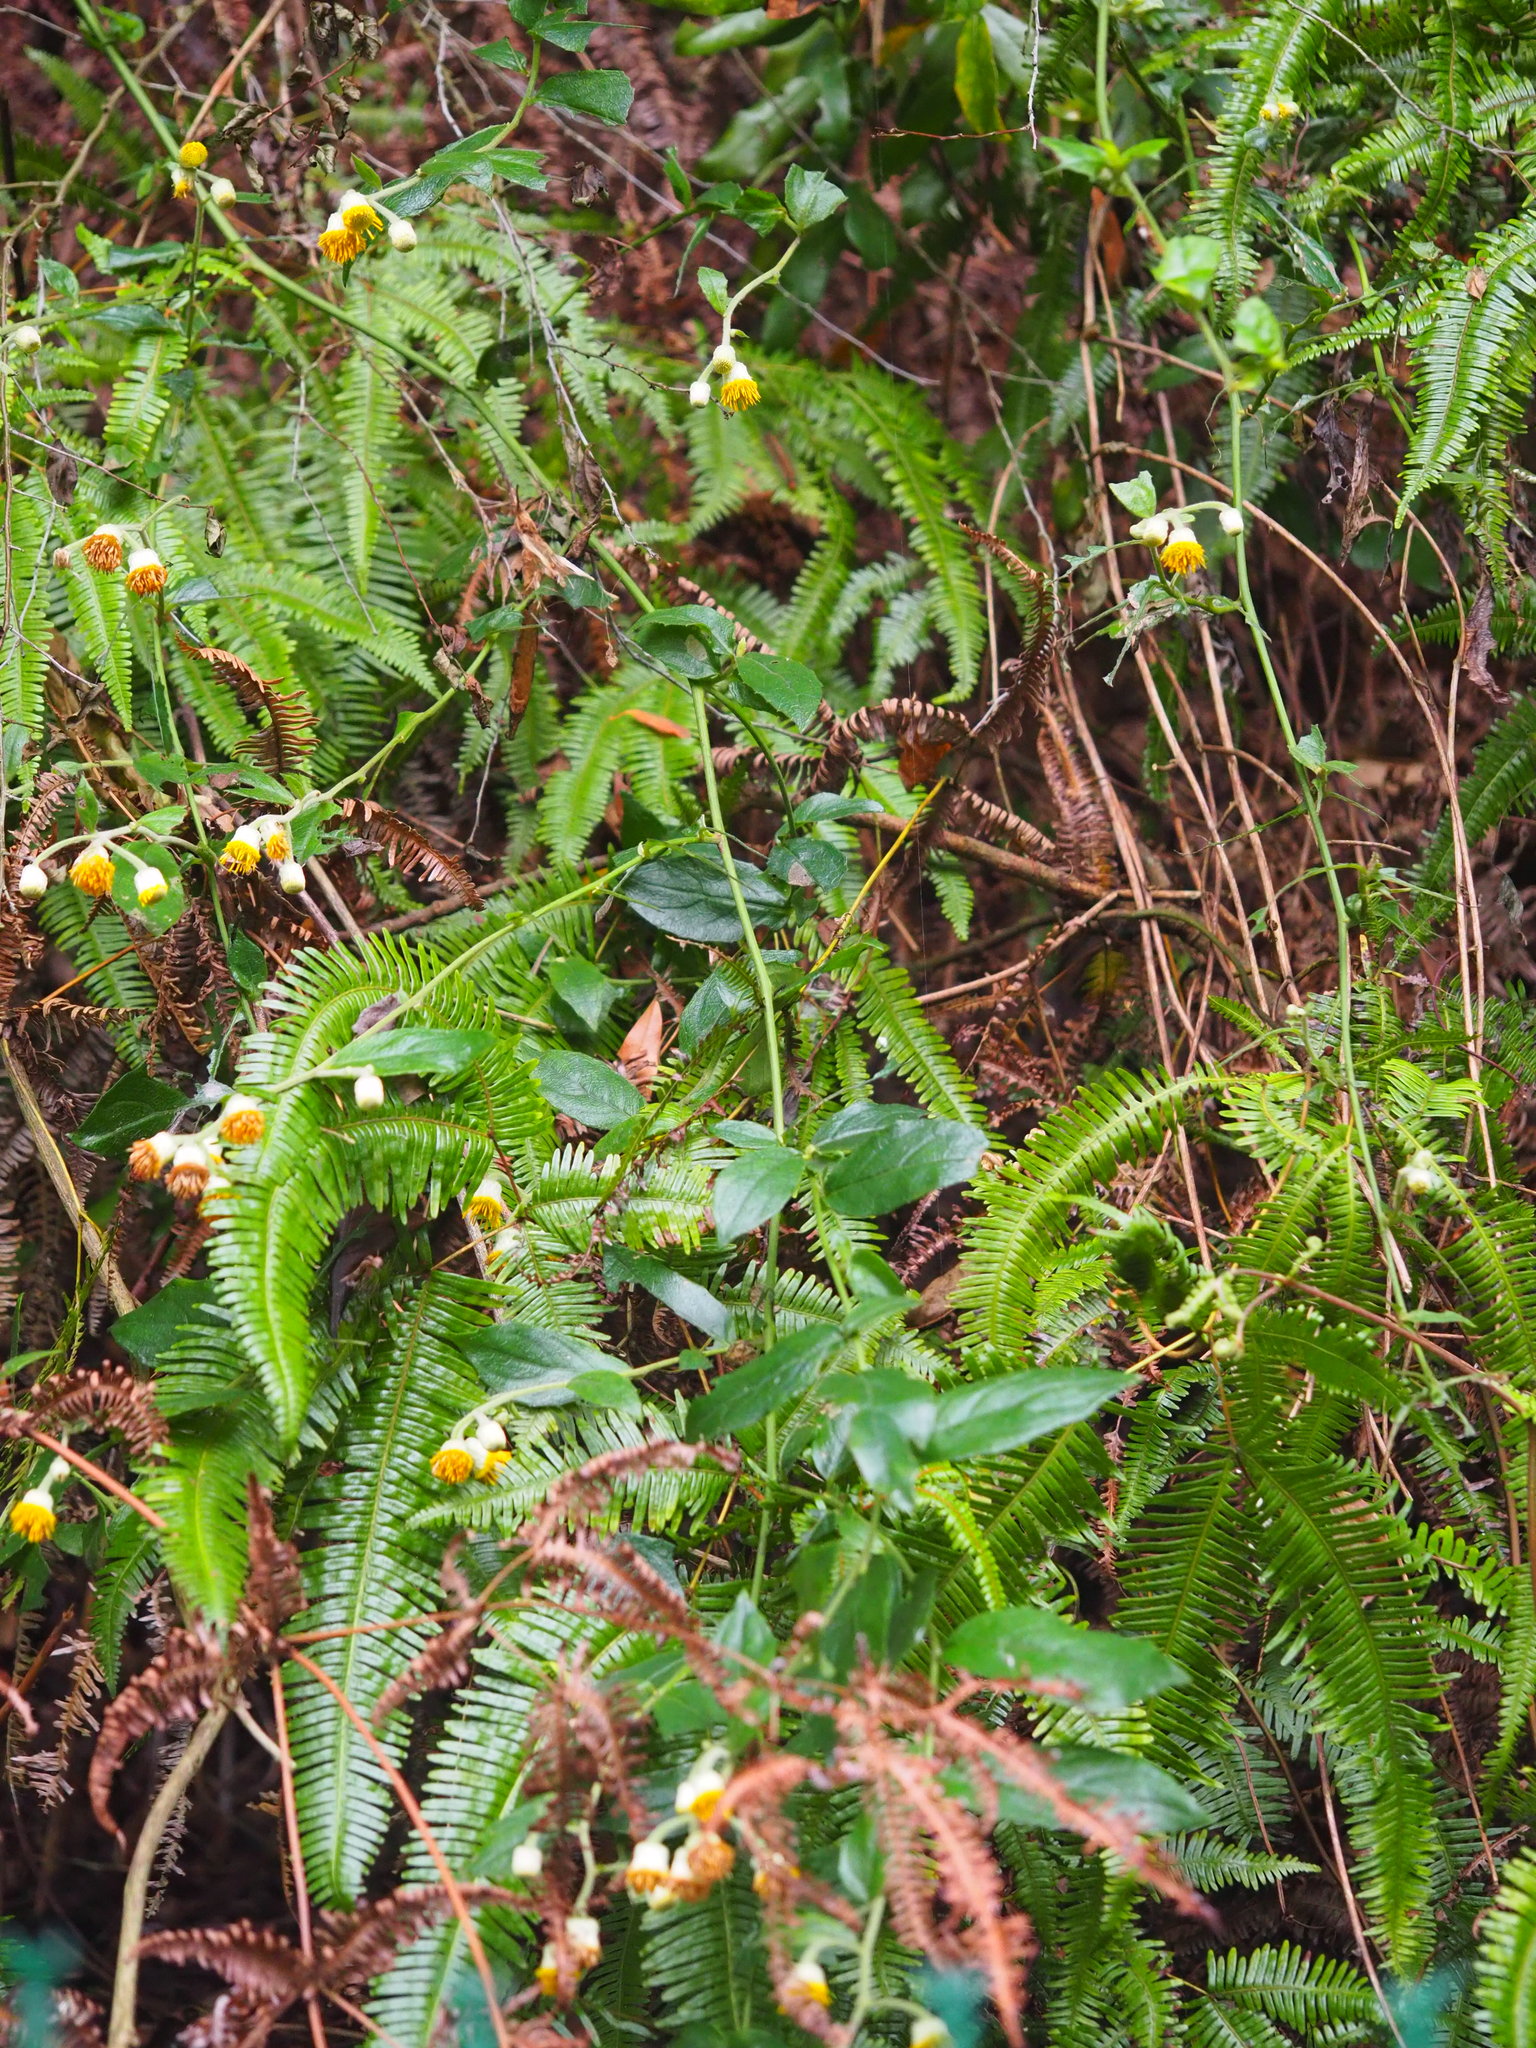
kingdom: Plantae
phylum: Tracheophyta
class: Magnoliopsida
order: Asterales
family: Asteraceae
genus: Blumea
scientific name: Blumea megacephala
